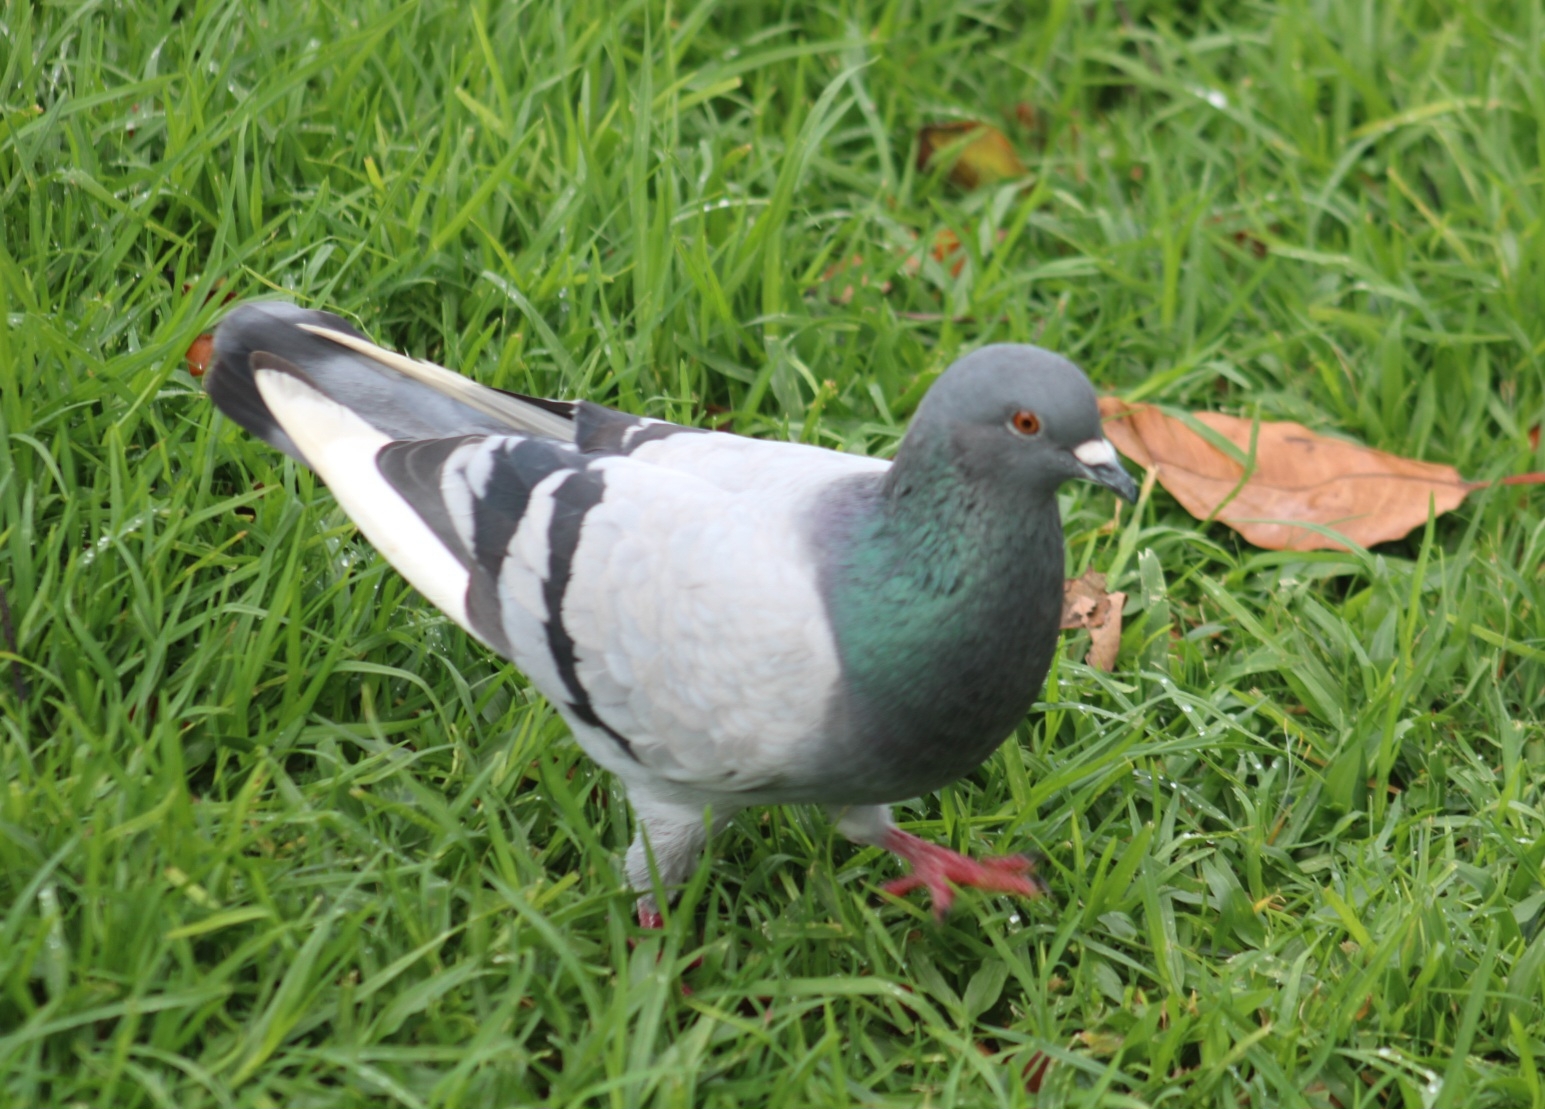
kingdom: Animalia
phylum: Chordata
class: Aves
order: Columbiformes
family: Columbidae
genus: Columba
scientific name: Columba livia
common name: Rock pigeon
